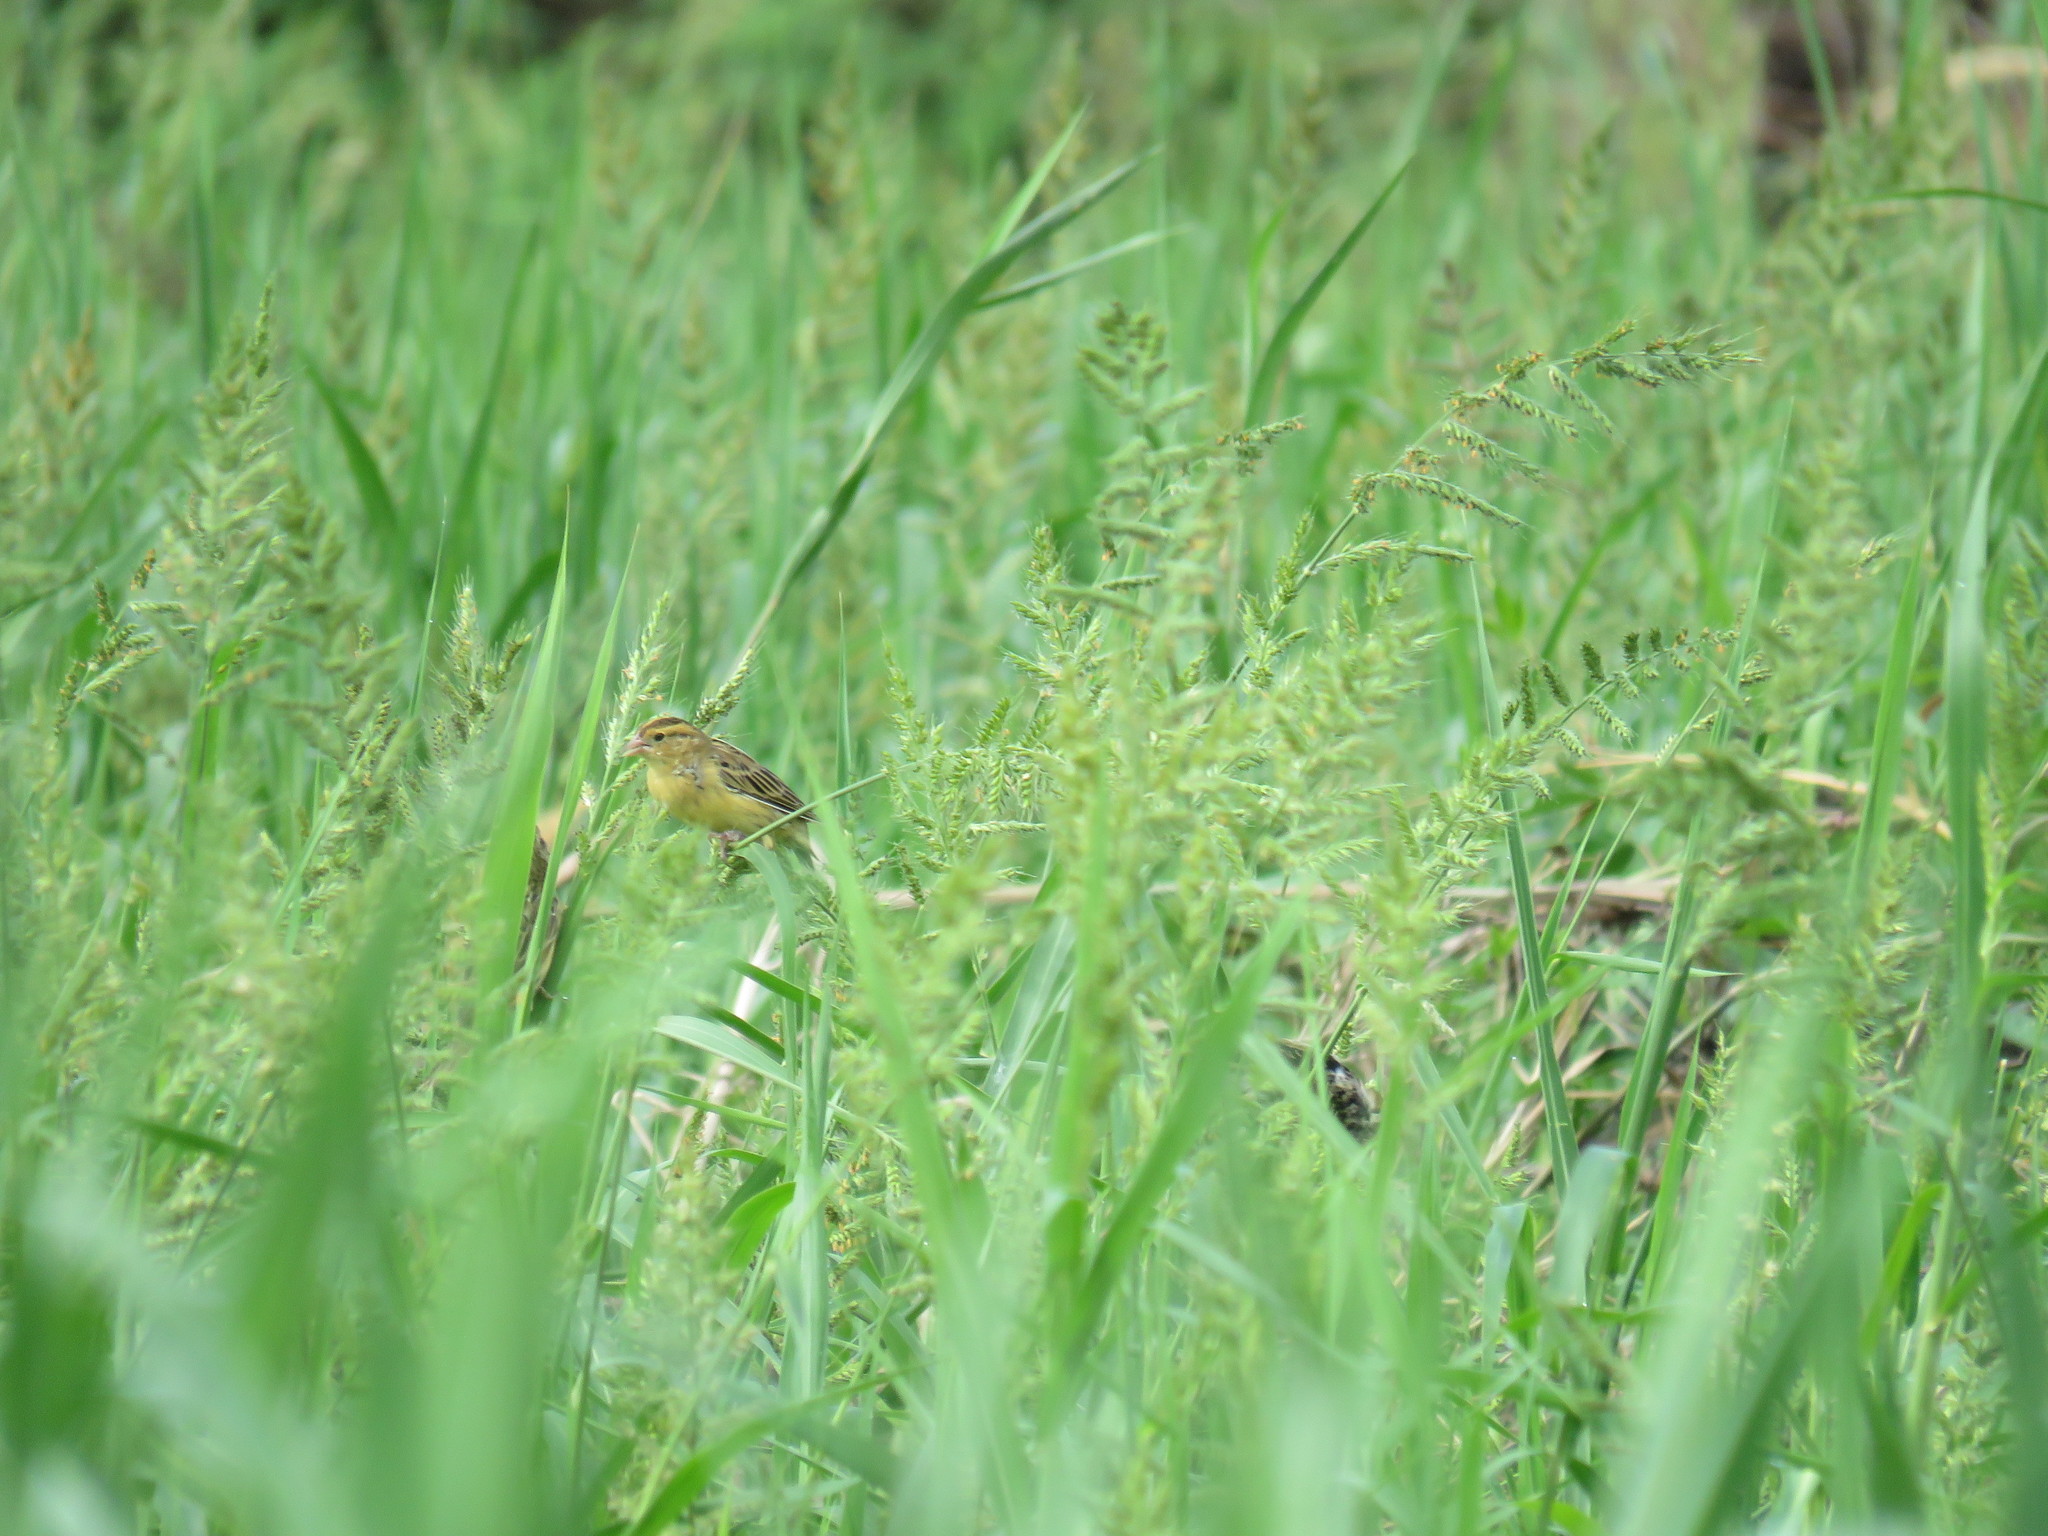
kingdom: Animalia
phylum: Chordata
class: Aves
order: Passeriformes
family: Icteridae
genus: Dolichonyx
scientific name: Dolichonyx oryzivorus
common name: Bobolink
